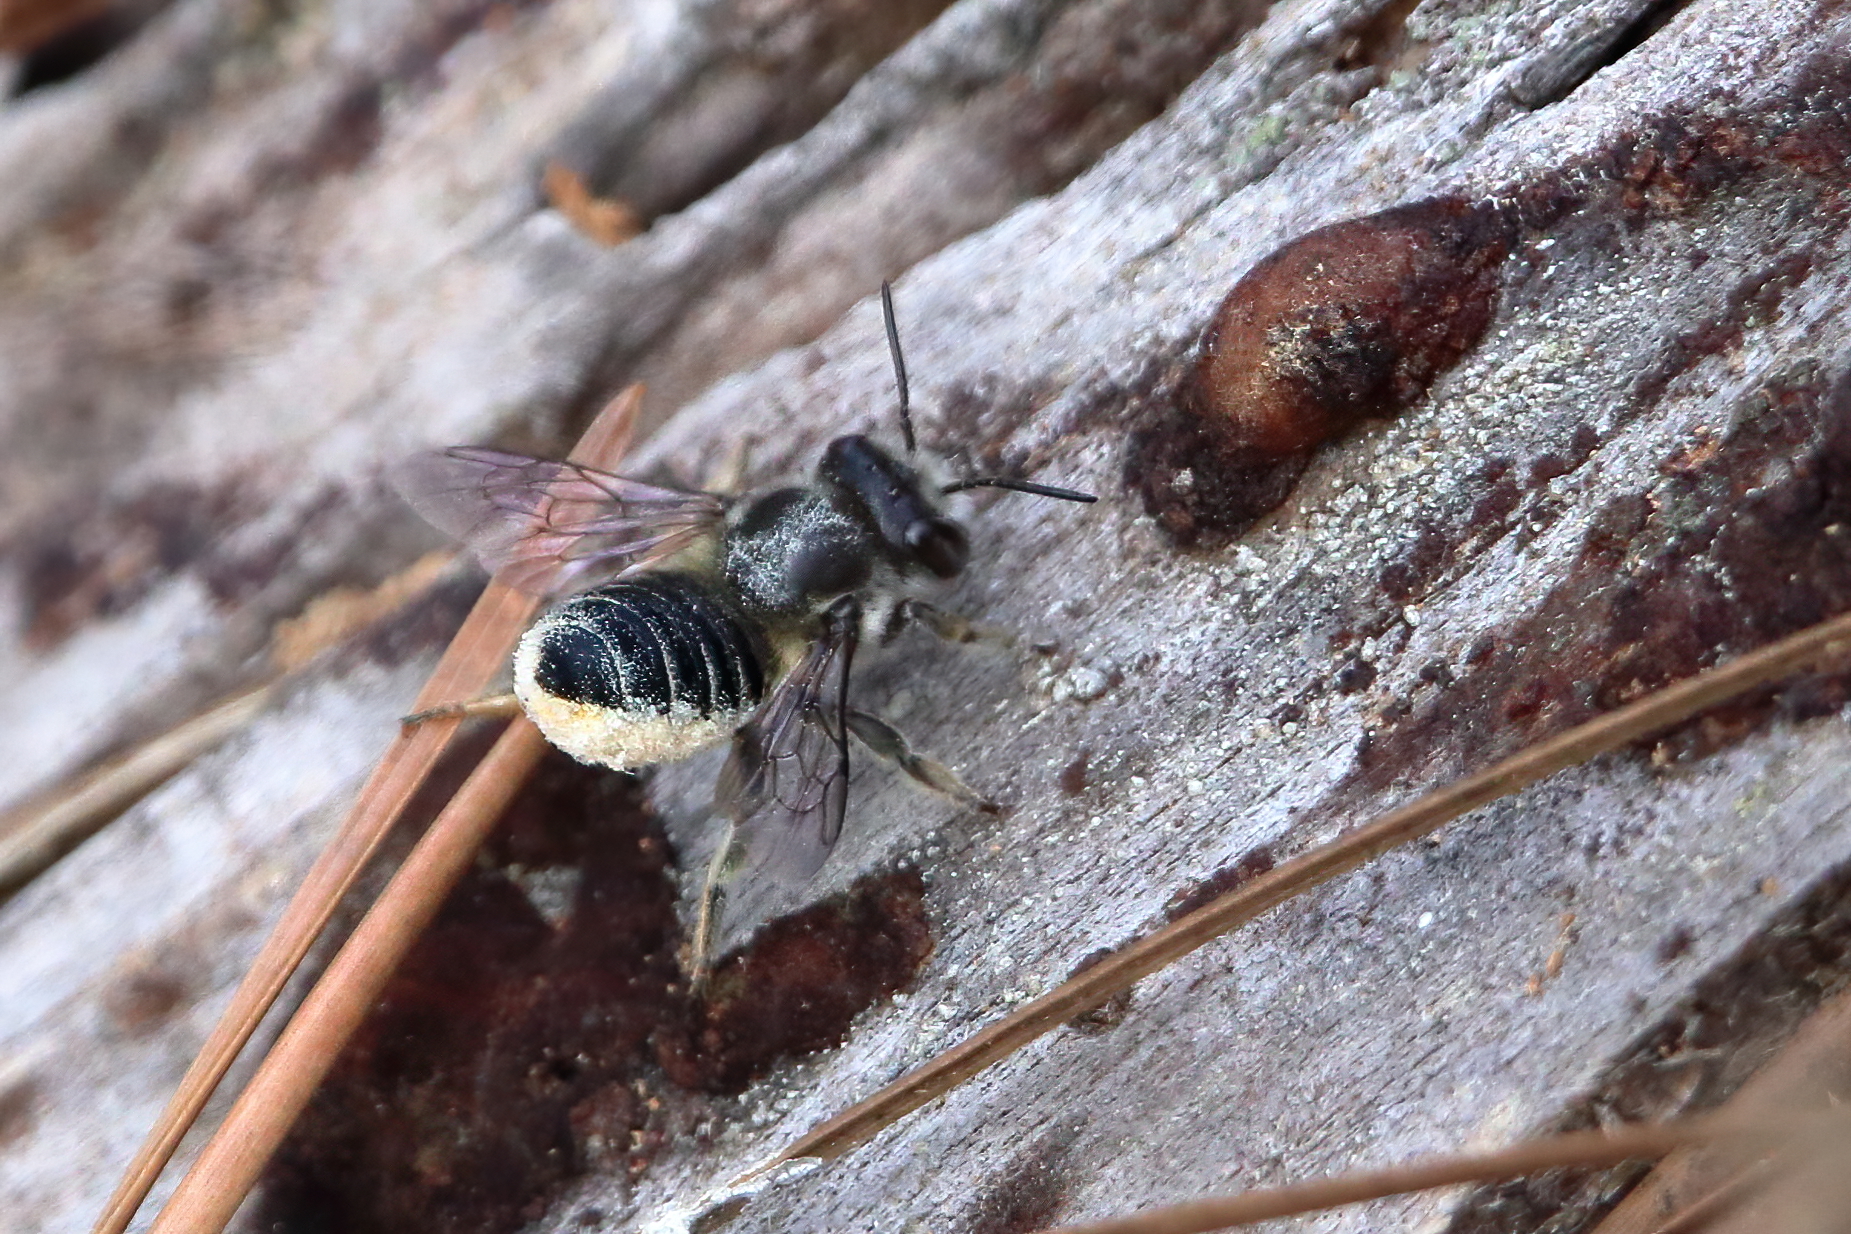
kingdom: Animalia
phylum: Arthropoda
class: Insecta
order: Hymenoptera
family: Megachilidae
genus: Megachile
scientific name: Megachile mendica
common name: Flat-tailed leafcutter
